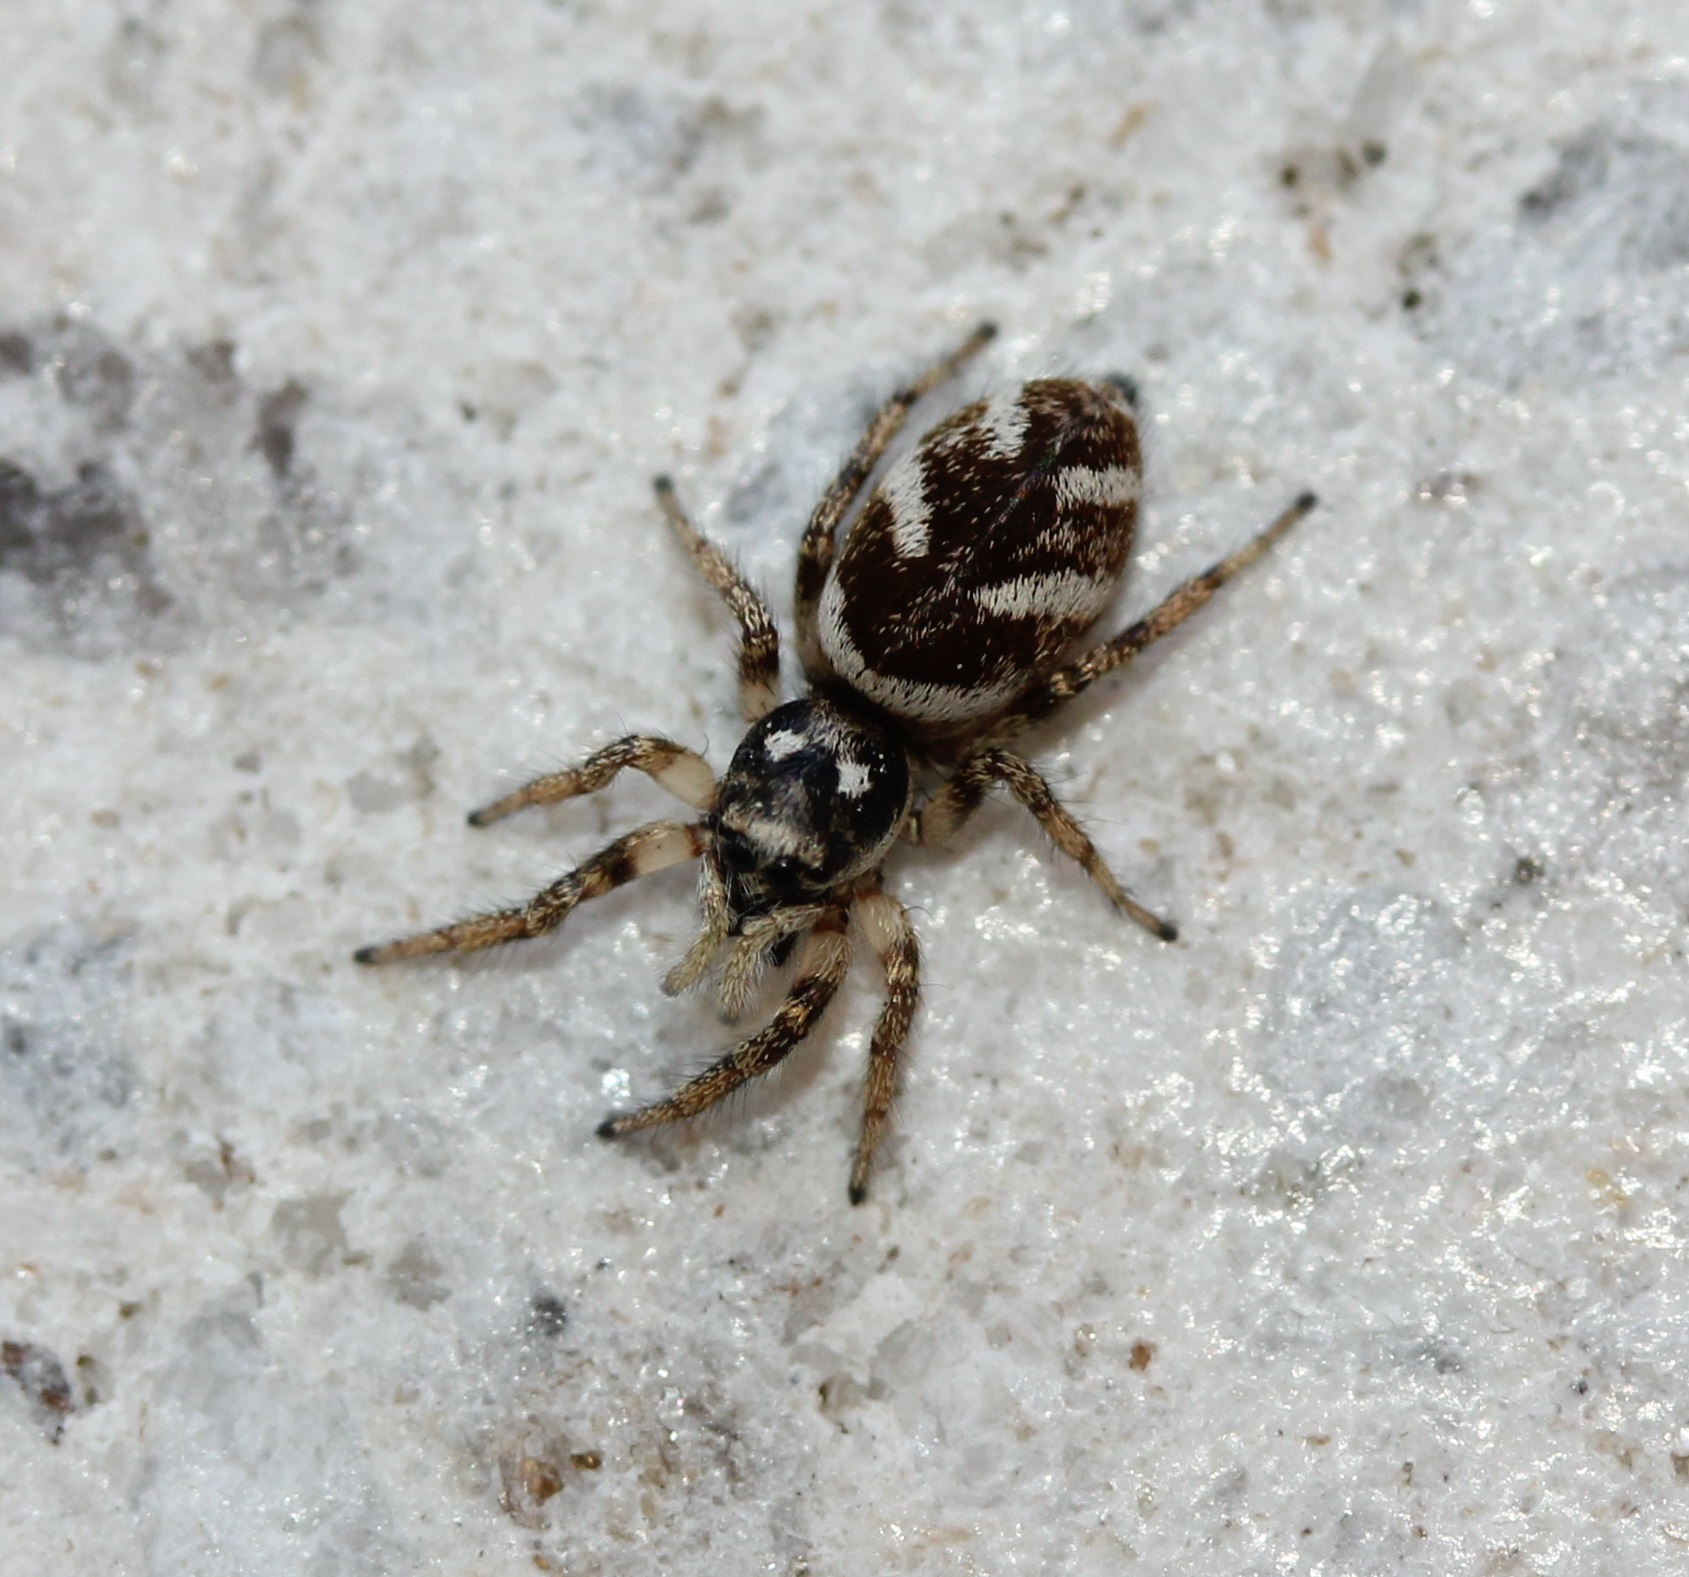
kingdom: Animalia
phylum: Arthropoda
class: Arachnida
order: Araneae
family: Salticidae
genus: Salticus
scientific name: Salticus scenicus
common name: Zebra jumper
